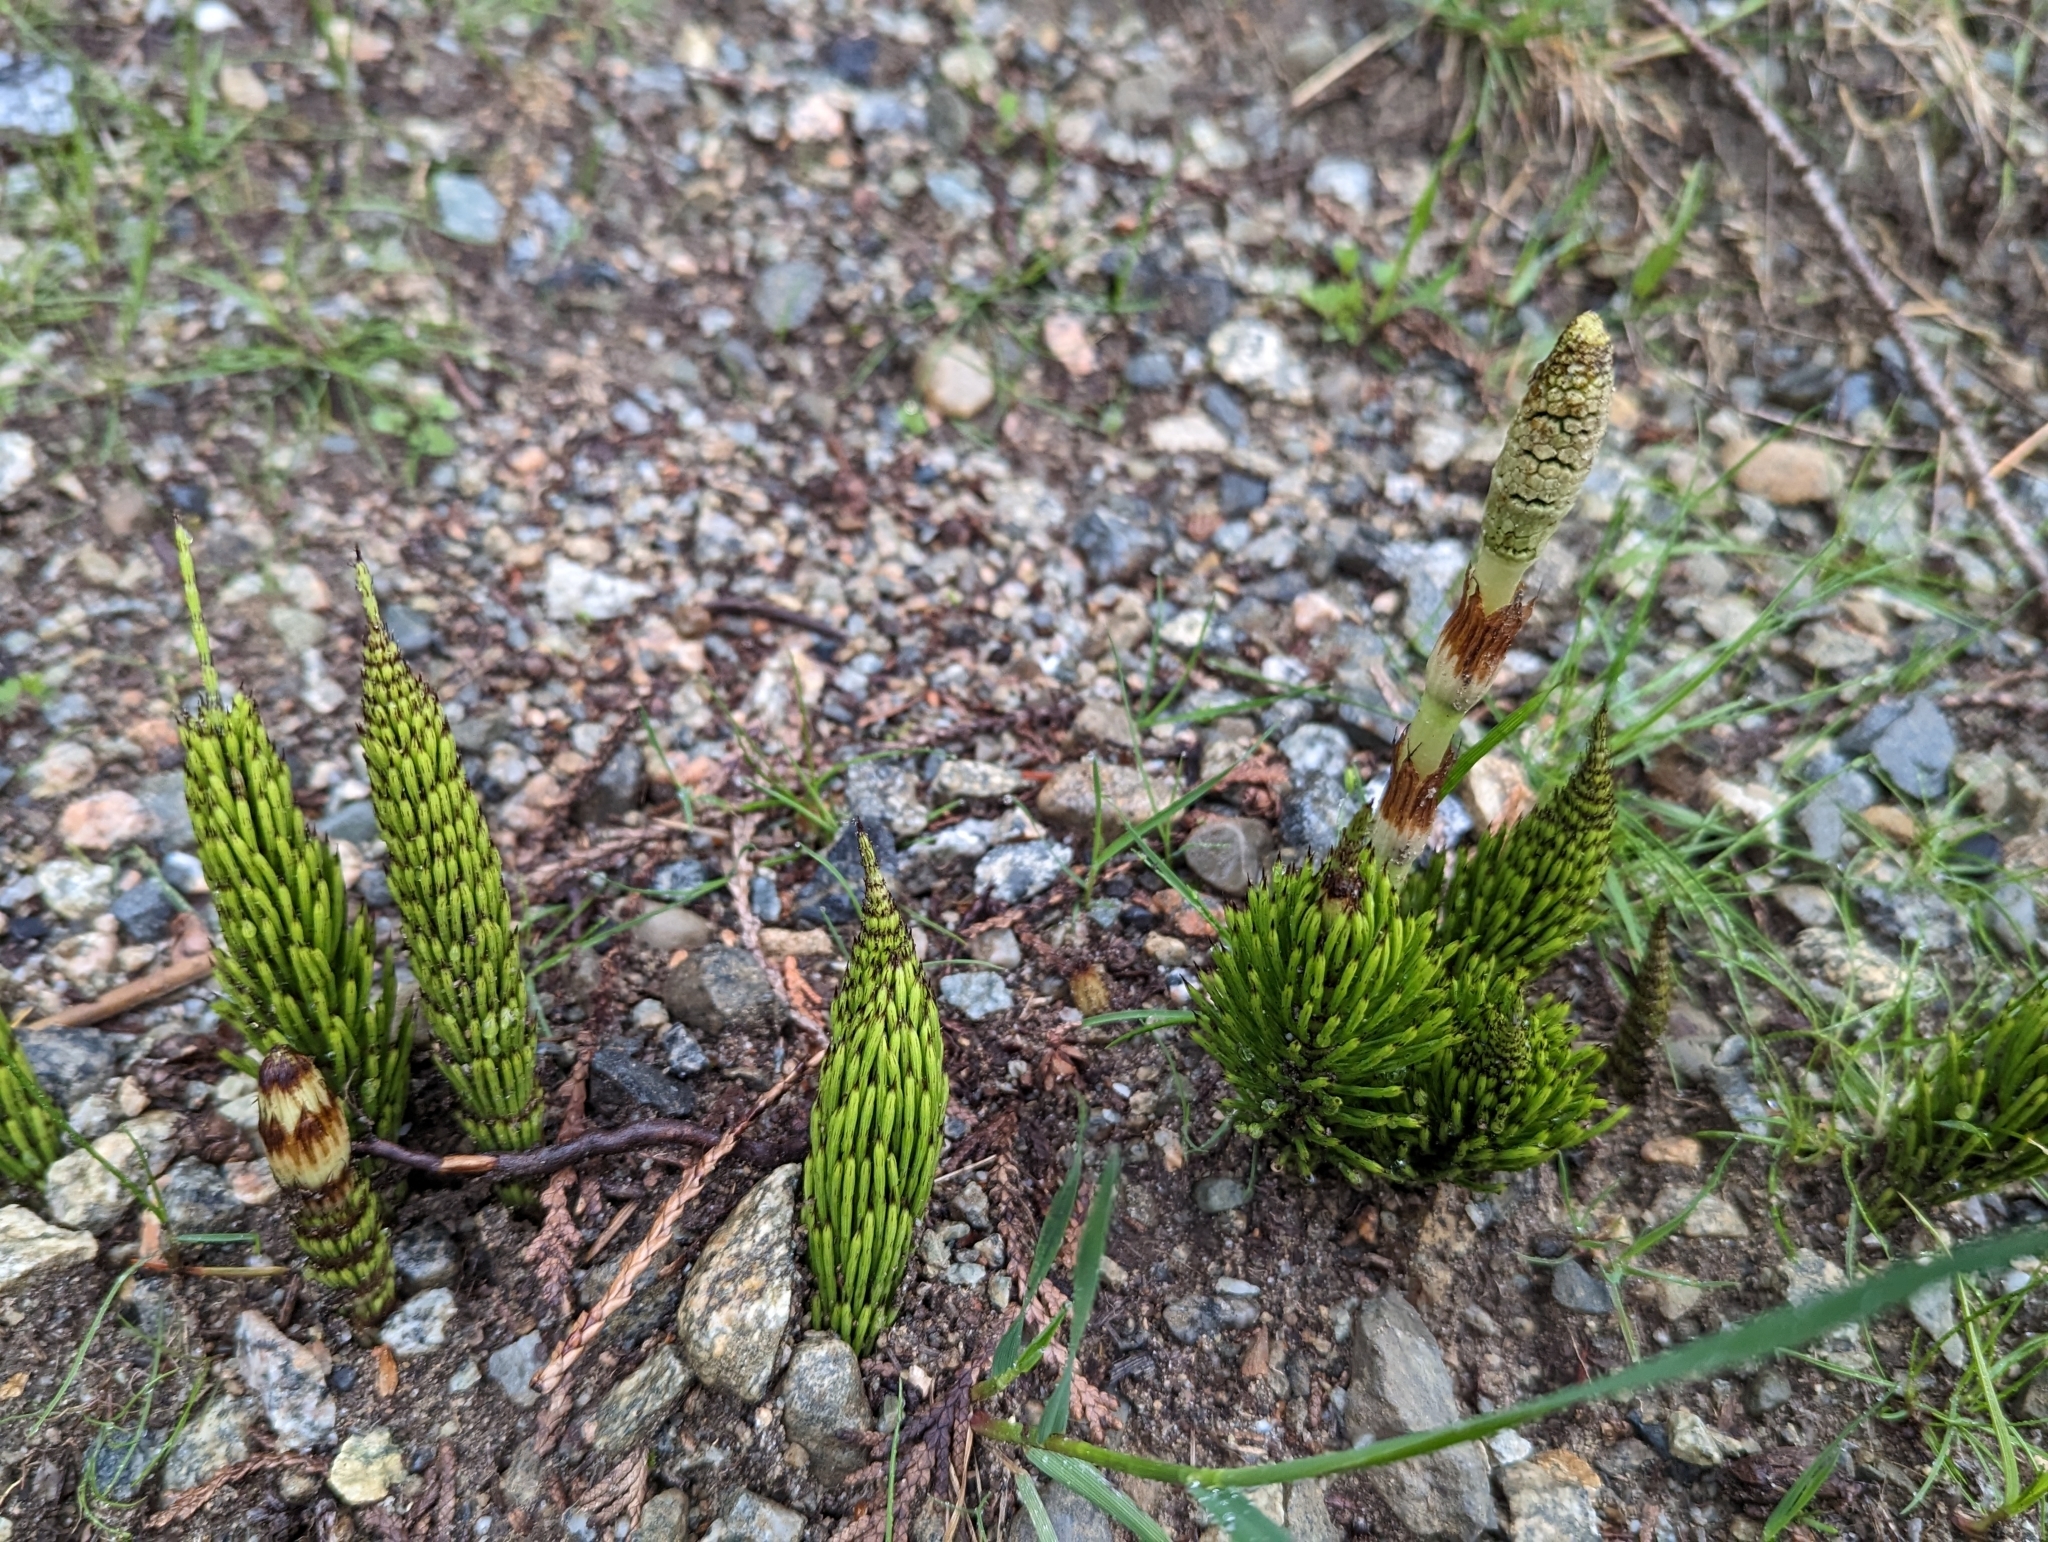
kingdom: Plantae
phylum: Tracheophyta
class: Polypodiopsida
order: Equisetales
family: Equisetaceae
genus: Equisetum
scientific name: Equisetum braunii
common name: Braun's horsetail
